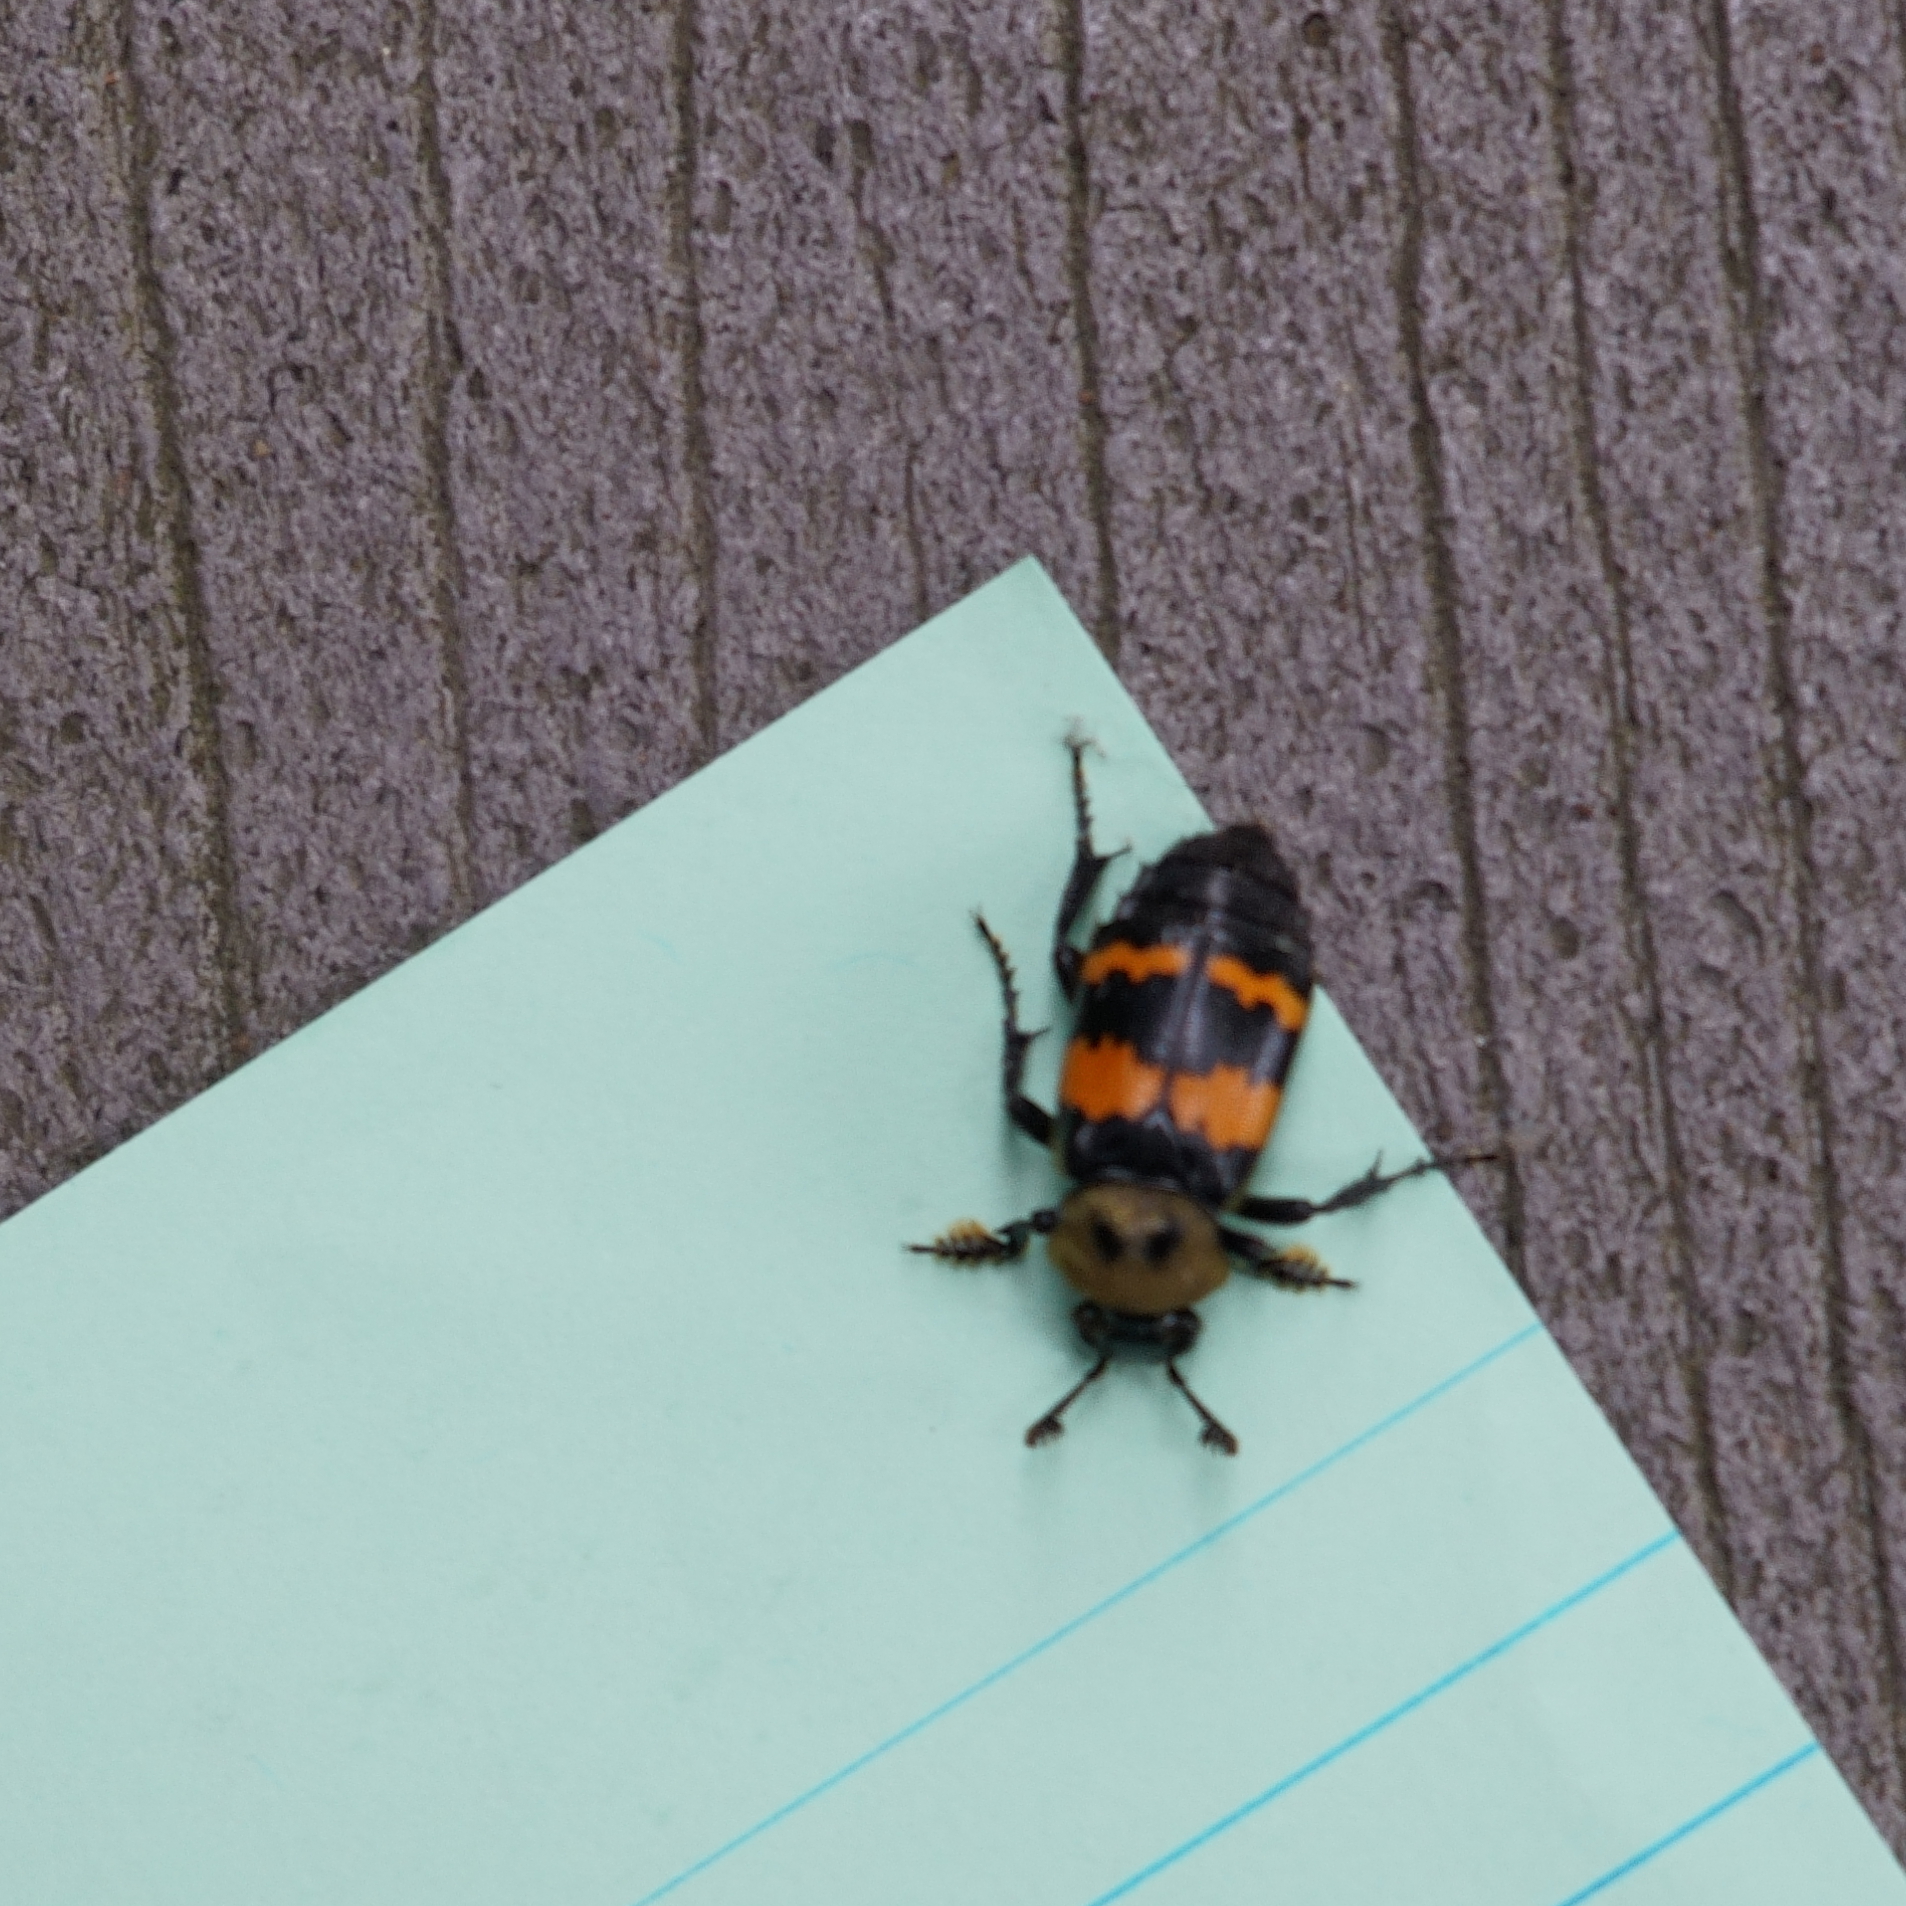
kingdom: Animalia
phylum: Arthropoda
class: Insecta
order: Coleoptera
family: Staphylinidae
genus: Nicrophorus
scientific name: Nicrophorus tomentosus
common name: Tomentose burying beetle
